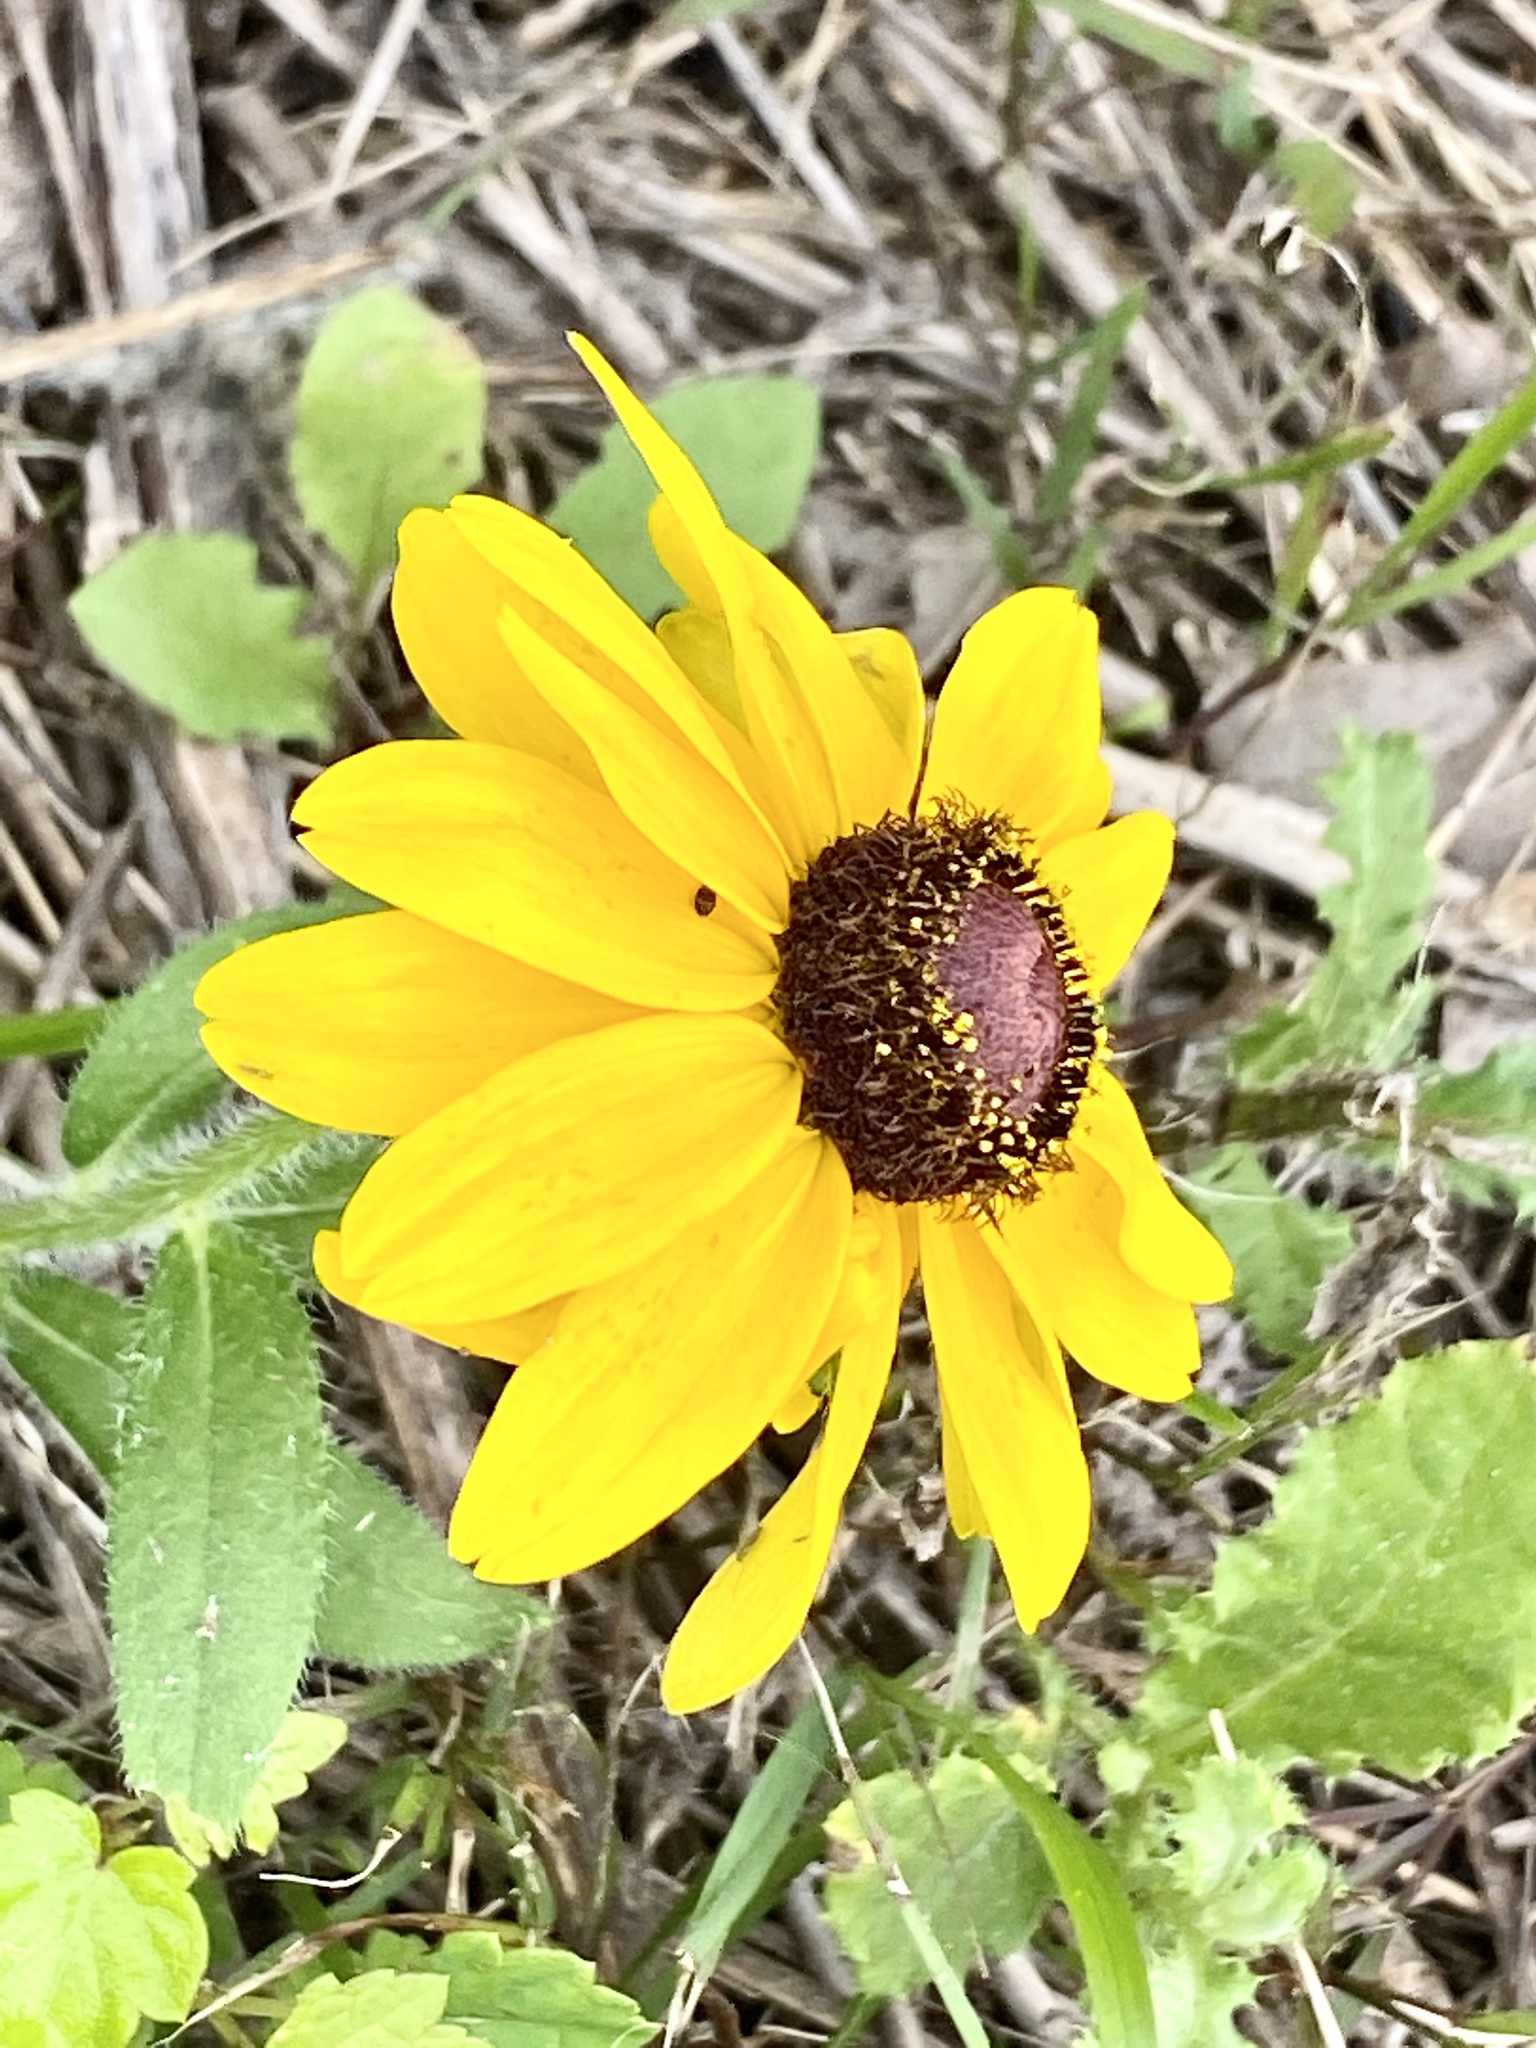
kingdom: Plantae
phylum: Tracheophyta
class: Magnoliopsida
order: Asterales
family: Asteraceae
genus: Rudbeckia
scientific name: Rudbeckia hirta
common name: Black-eyed-susan
